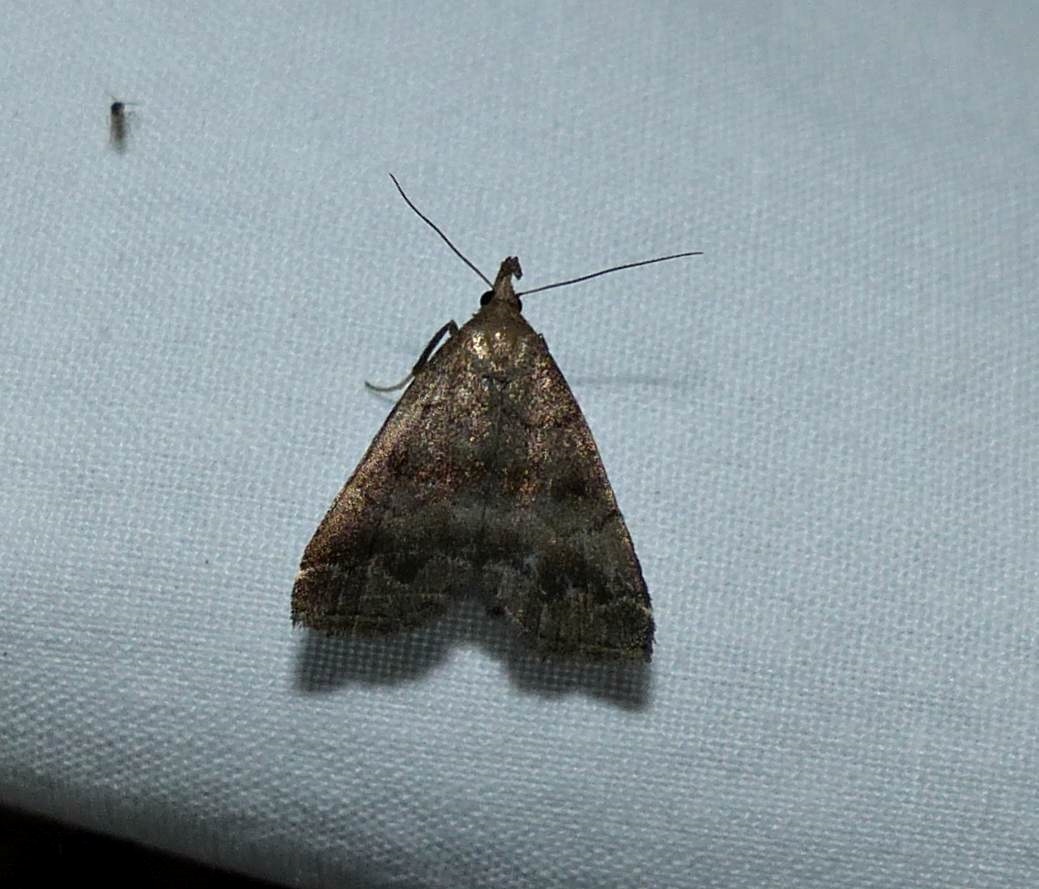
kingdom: Animalia
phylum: Arthropoda
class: Insecta
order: Lepidoptera
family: Erebidae
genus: Phalaenostola
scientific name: Phalaenostola larentioides
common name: Black-banded owlet
